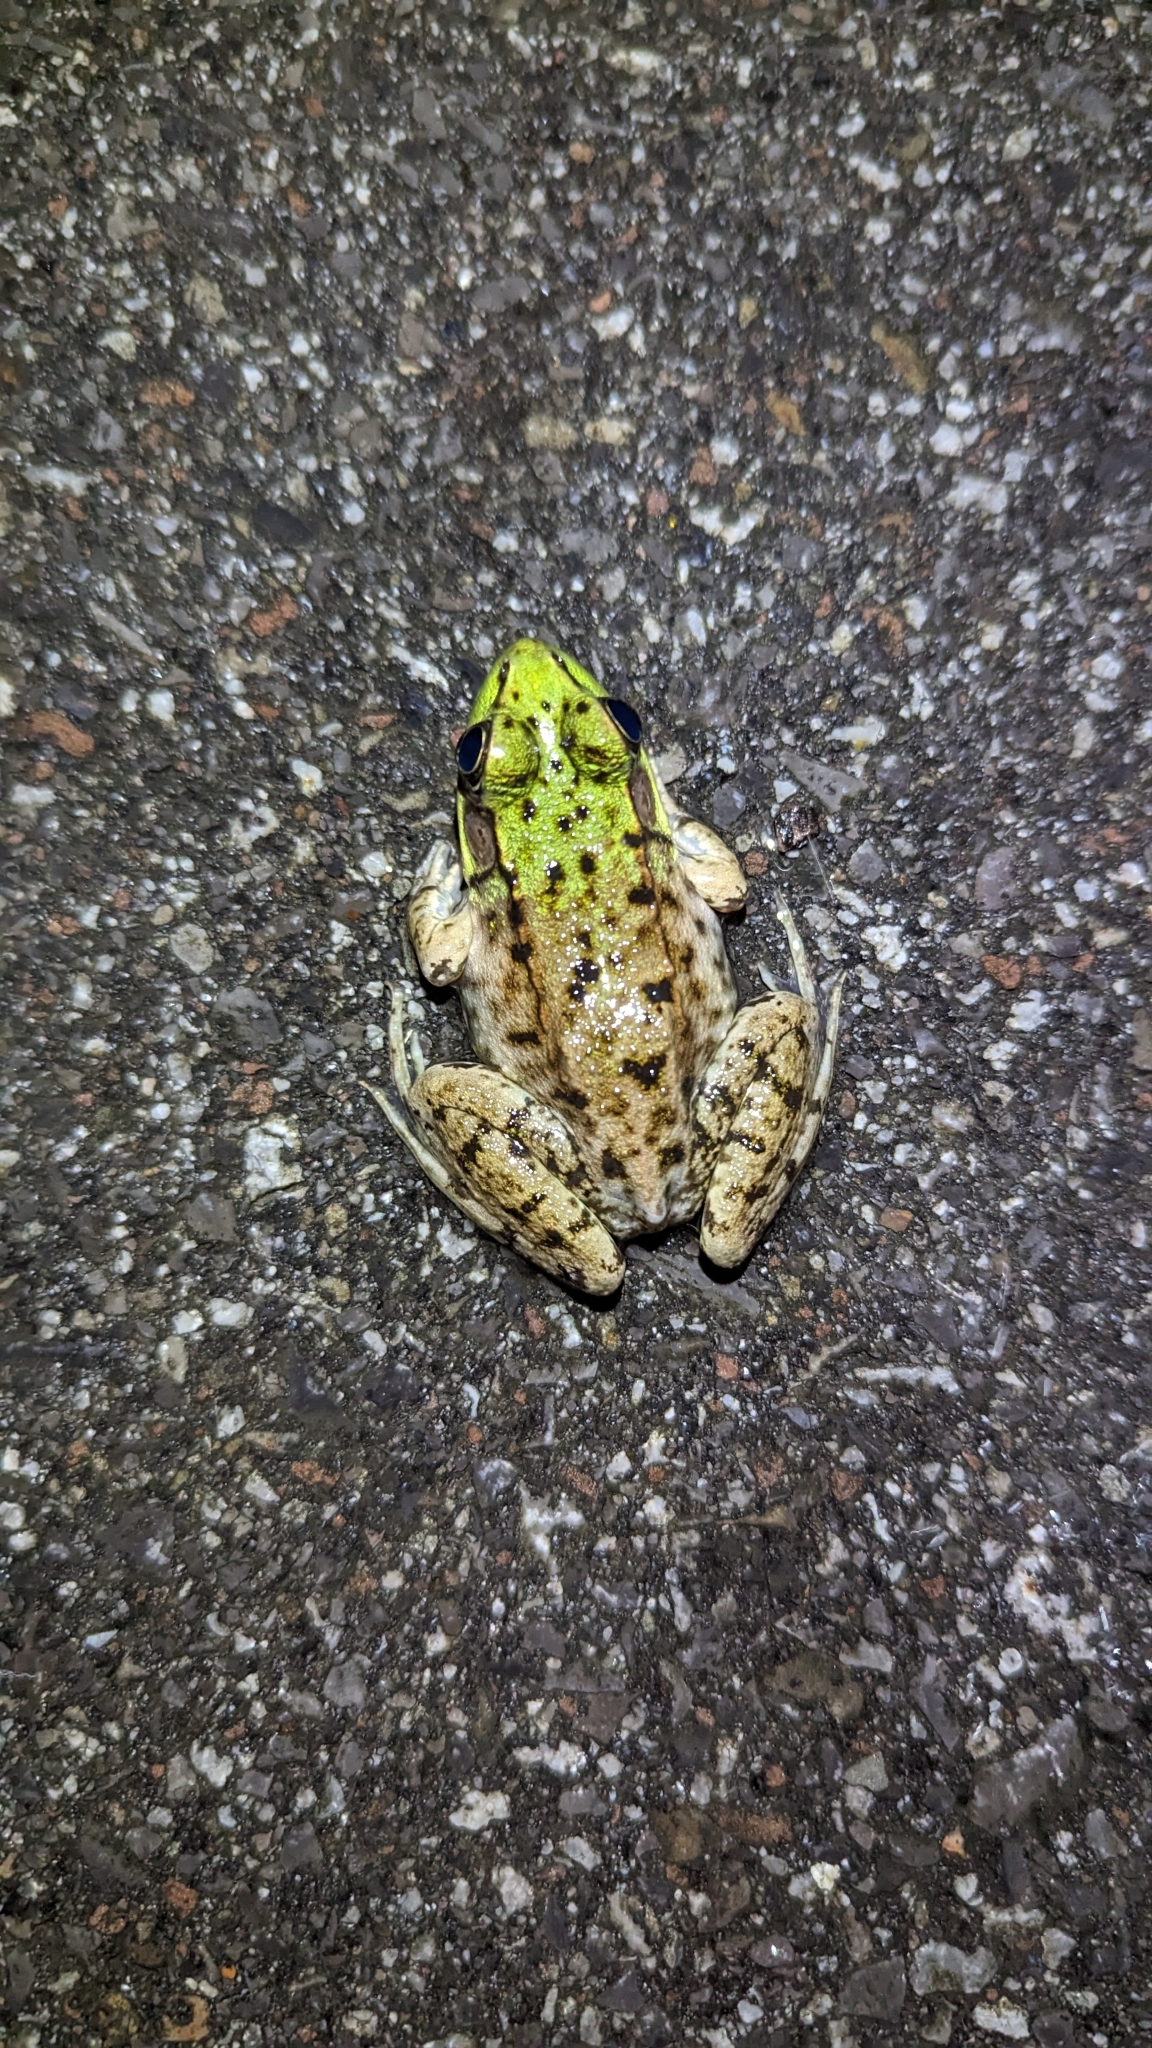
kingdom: Animalia
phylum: Chordata
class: Amphibia
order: Anura
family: Ranidae
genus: Lithobates
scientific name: Lithobates clamitans
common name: Green frog
